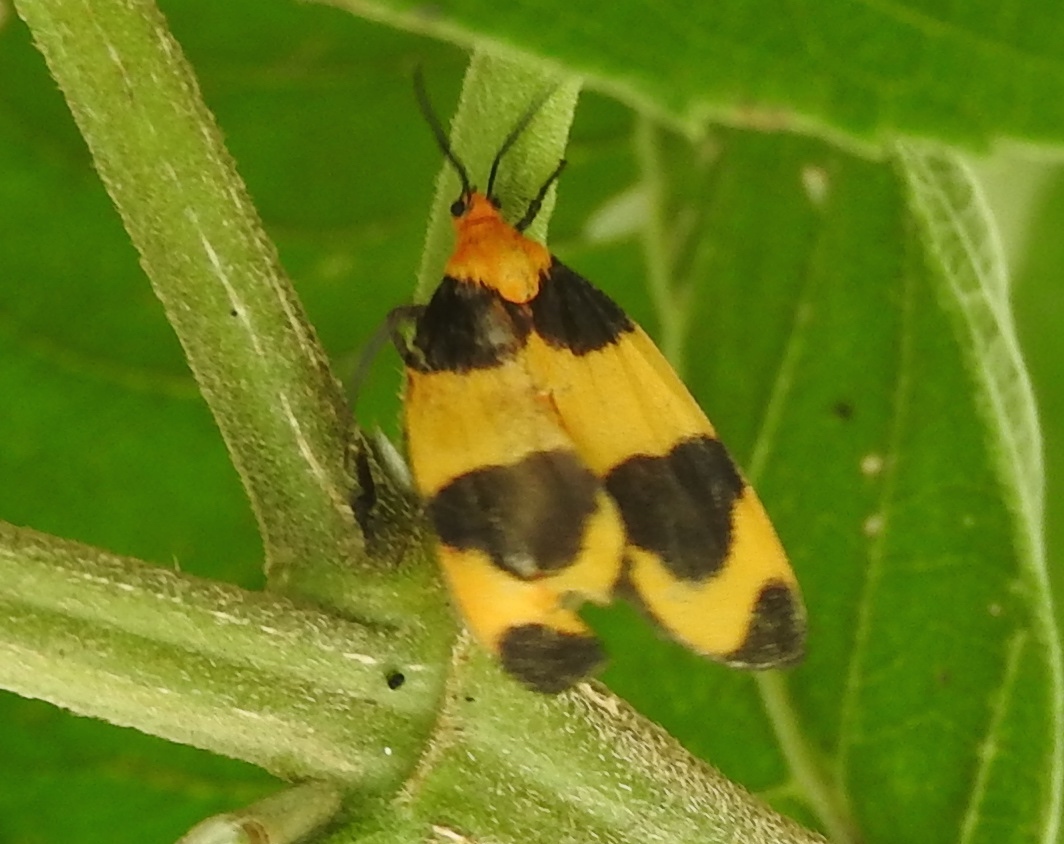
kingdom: Animalia
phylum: Arthropoda
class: Insecta
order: Lepidoptera
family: Erebidae
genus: Eudesmia
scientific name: Eudesmia menea
